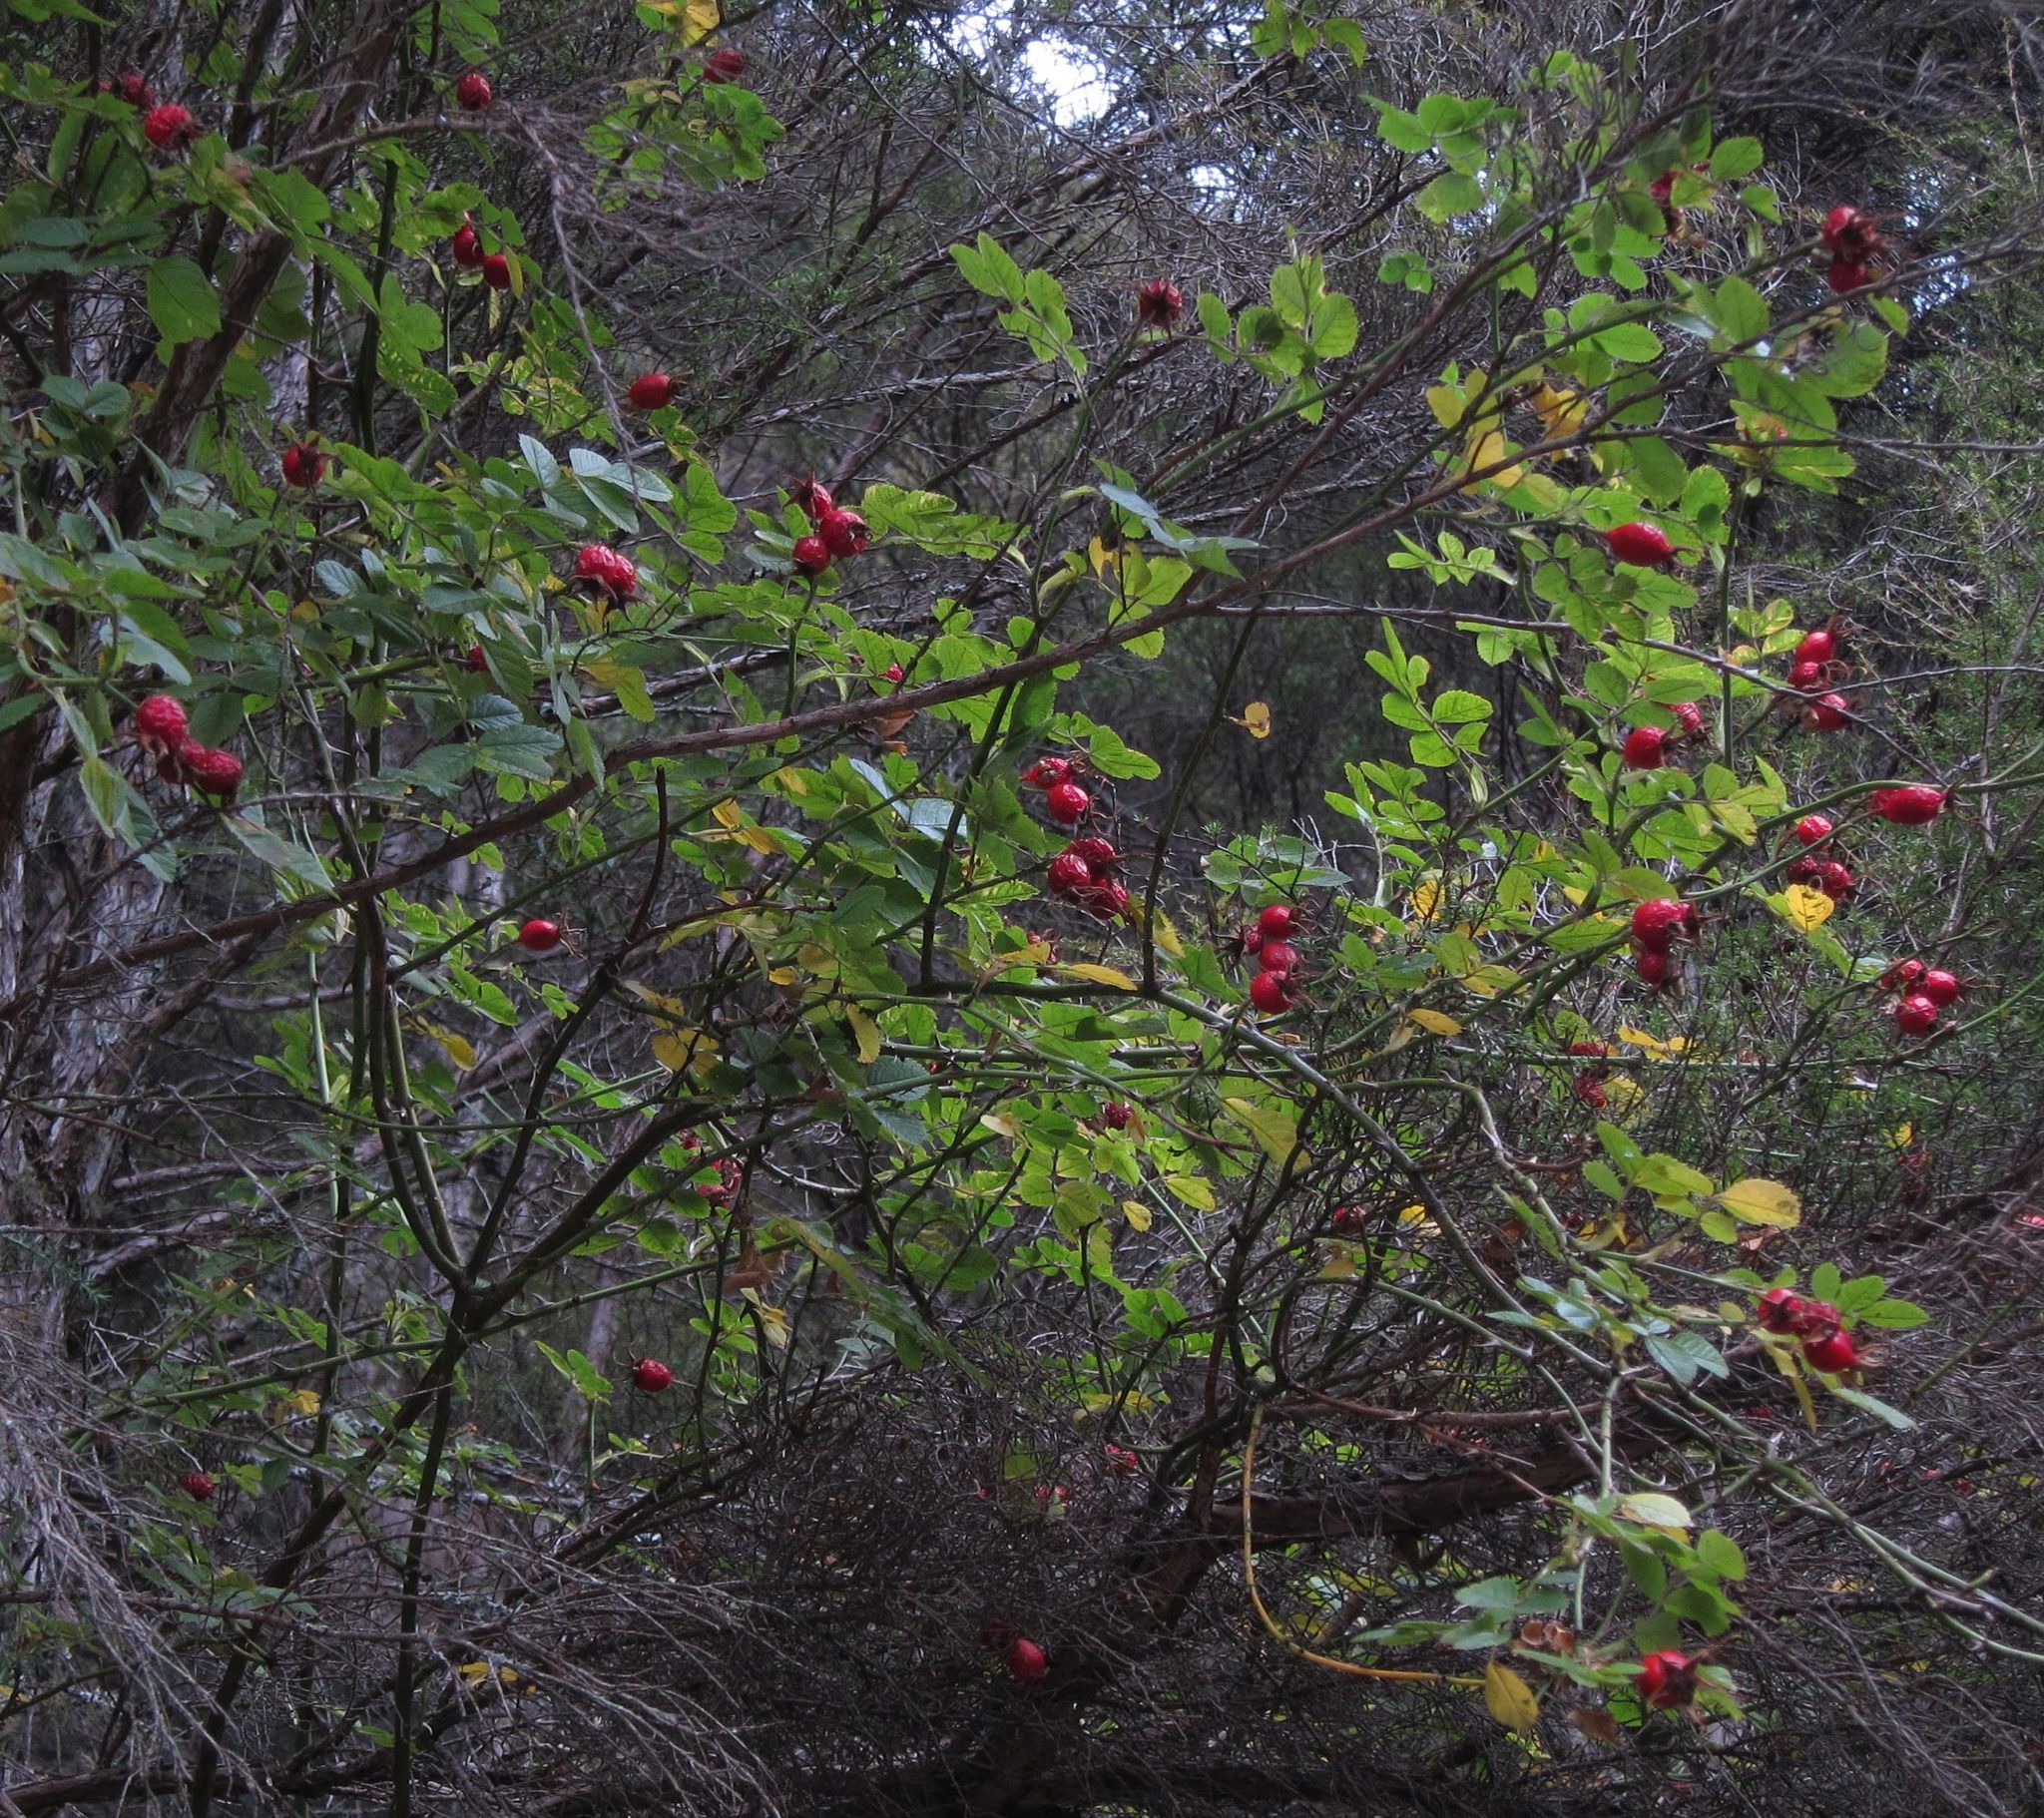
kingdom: Plantae
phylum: Tracheophyta
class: Magnoliopsida
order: Rosales
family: Rosaceae
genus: Rosa
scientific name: Rosa rubiginosa
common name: Sweet-briar
